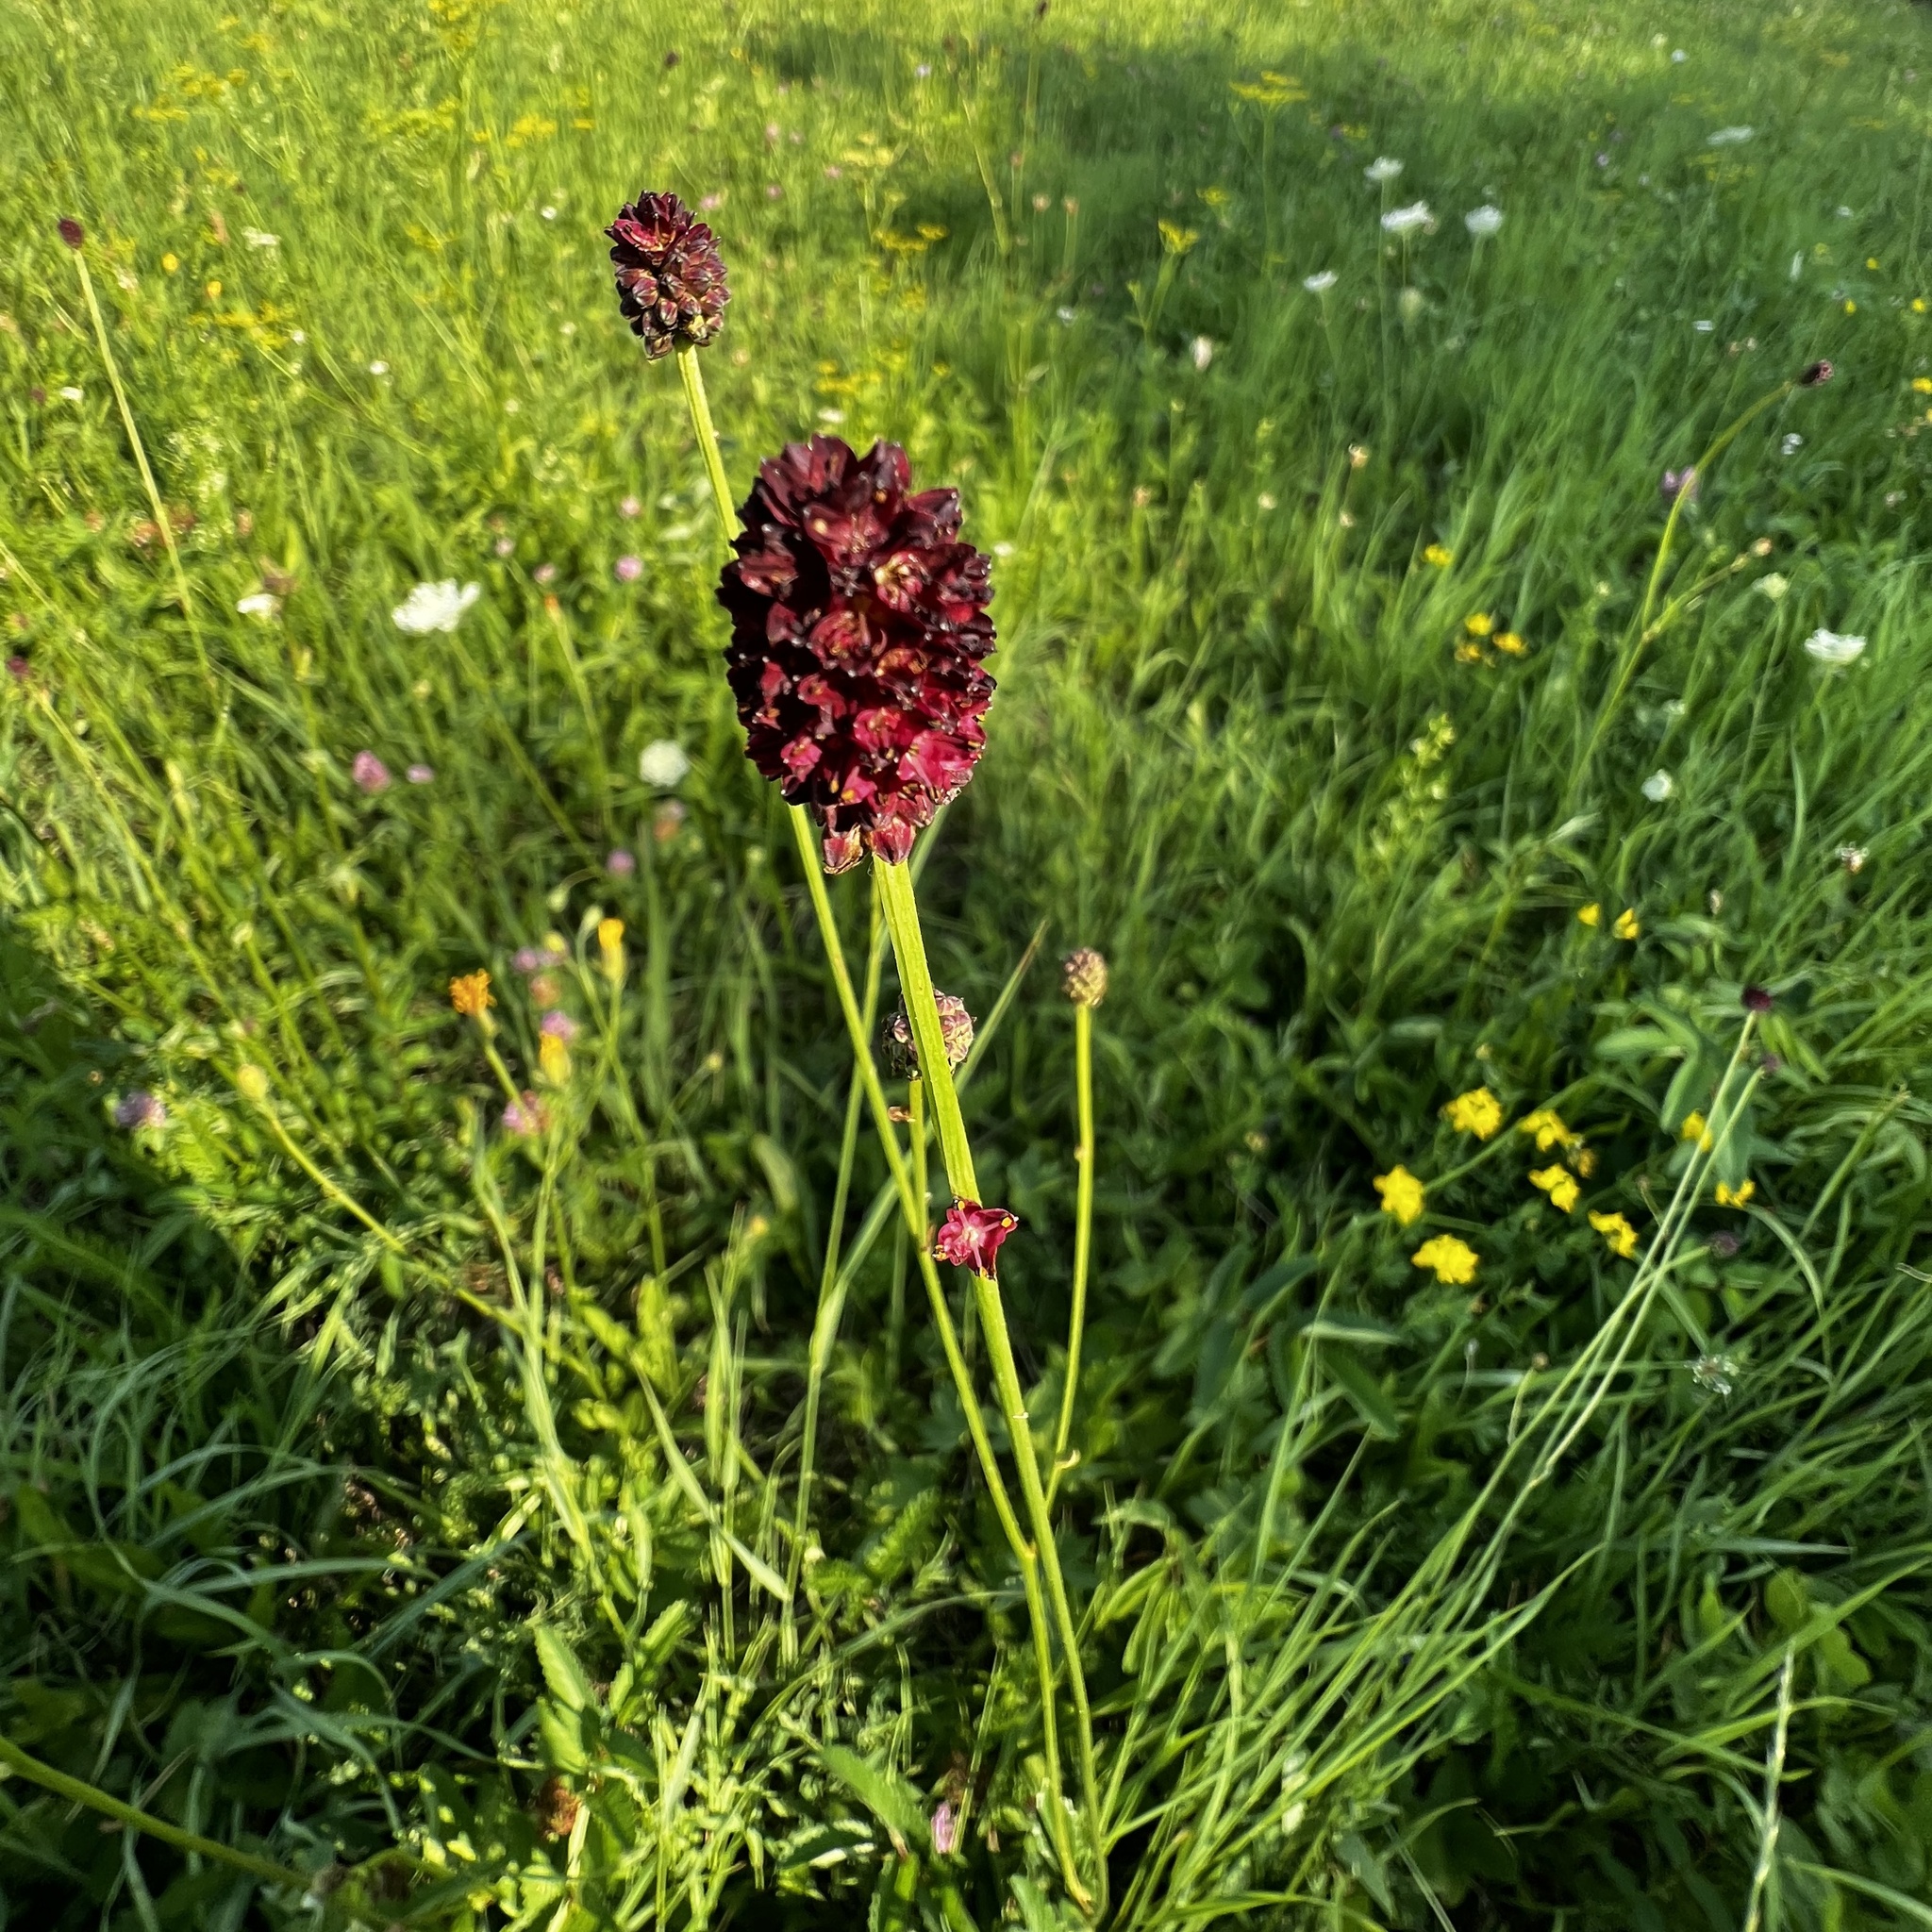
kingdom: Plantae
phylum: Tracheophyta
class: Magnoliopsida
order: Rosales
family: Rosaceae
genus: Sanguisorba
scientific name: Sanguisorba officinalis
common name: Great burnet
